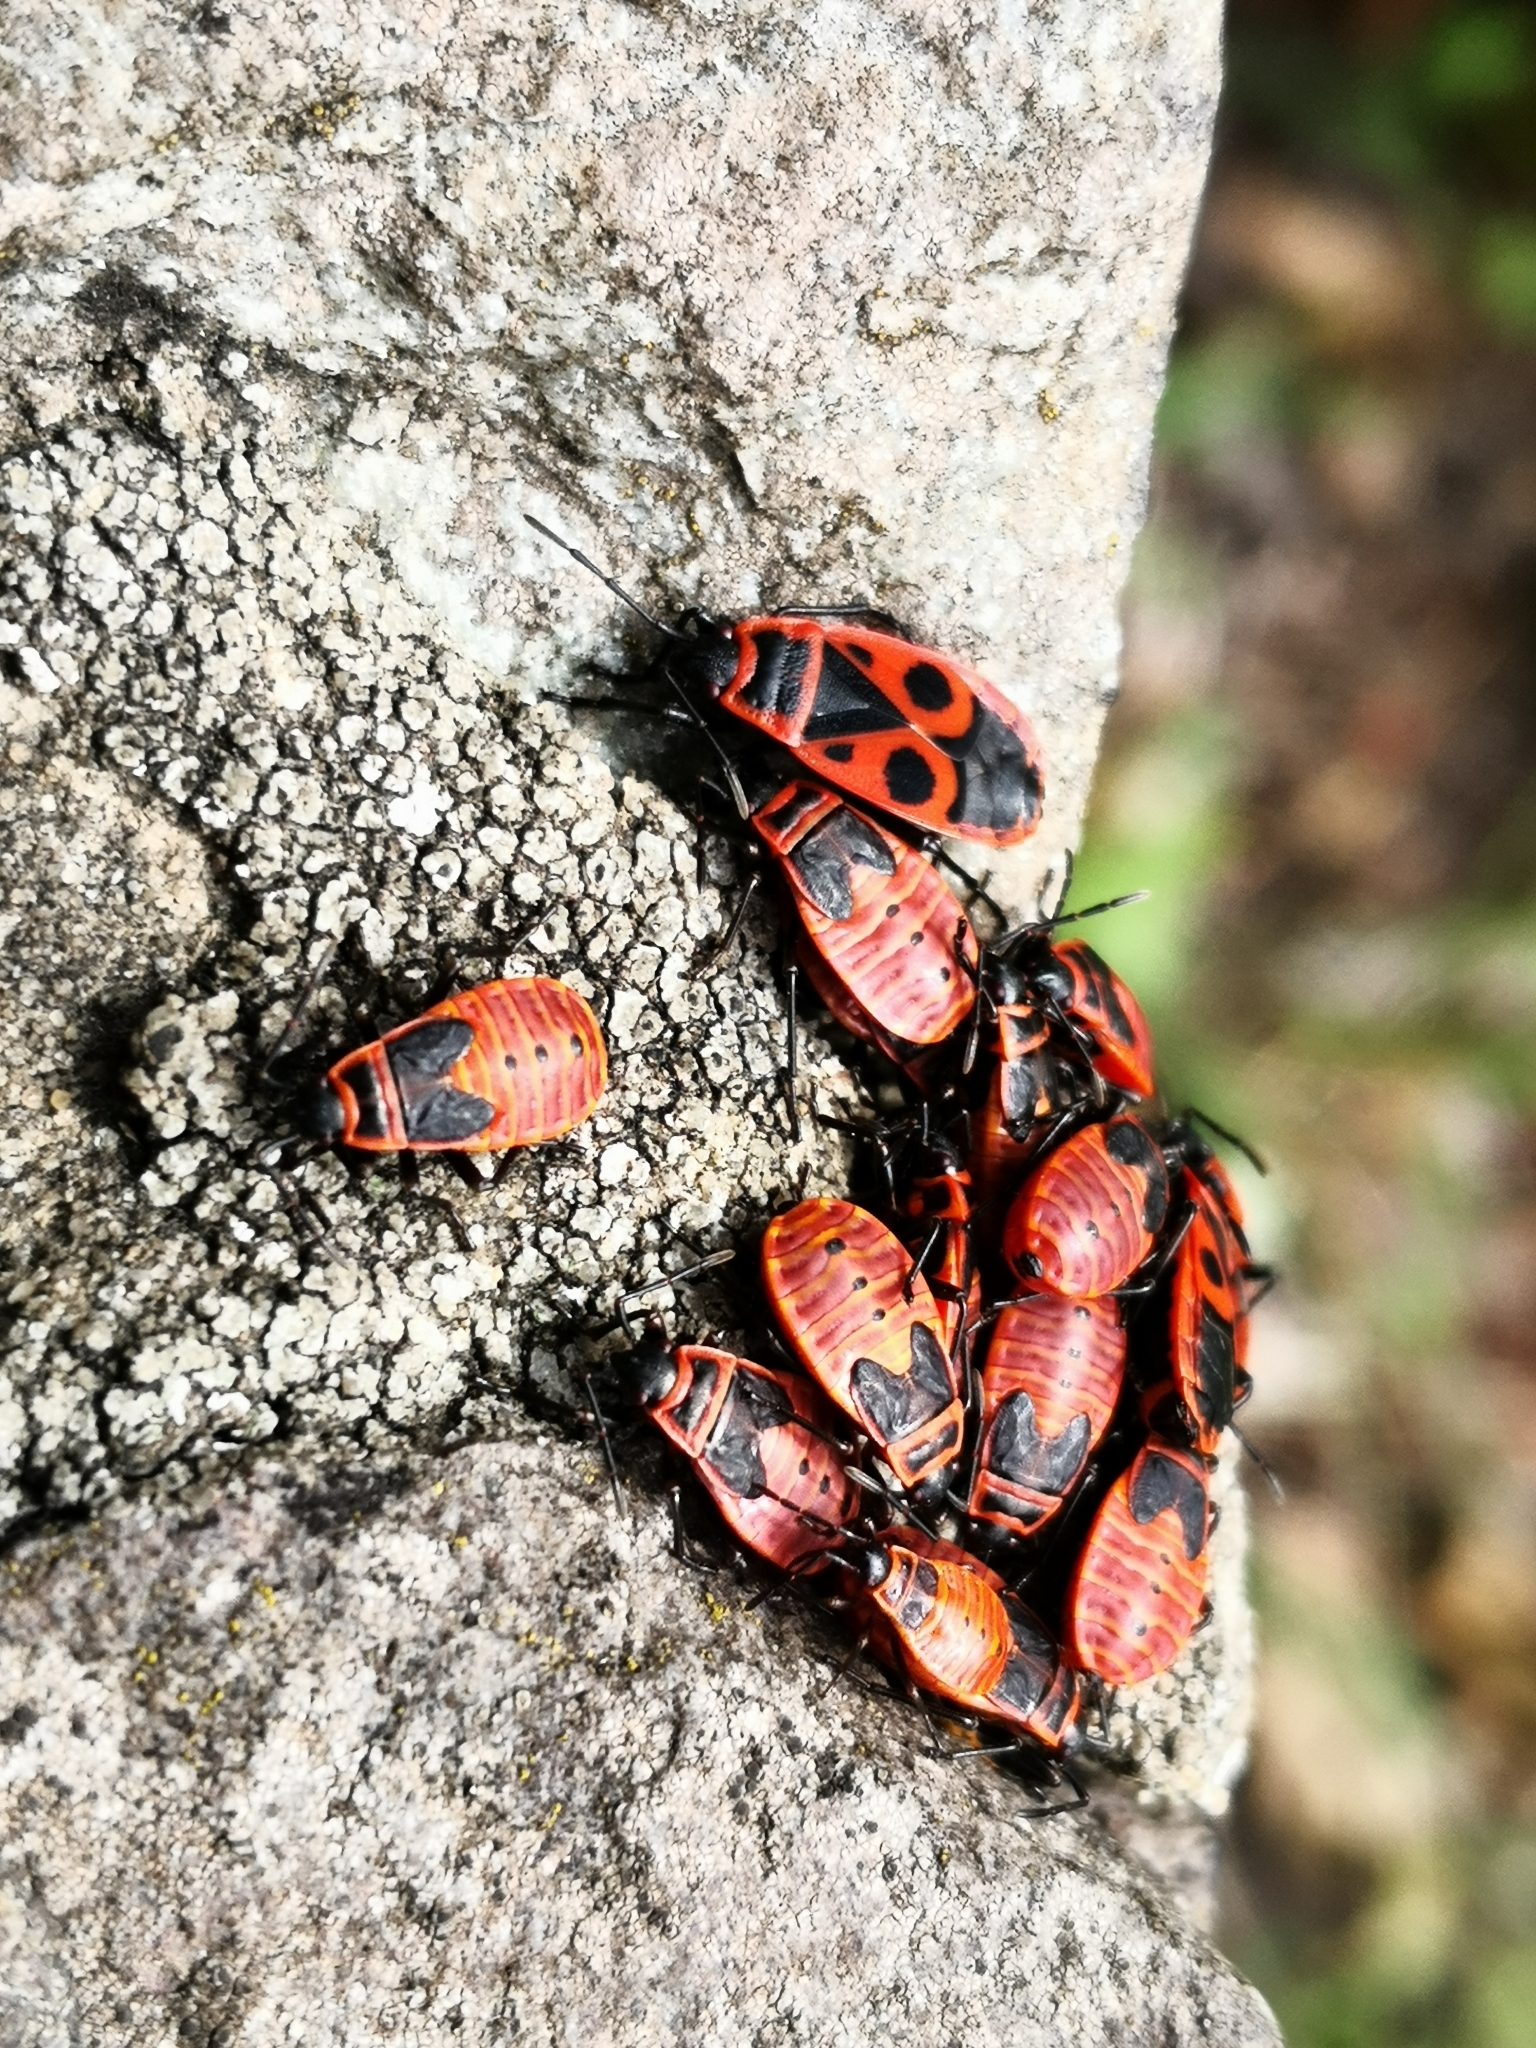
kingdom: Animalia
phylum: Arthropoda
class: Insecta
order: Hemiptera
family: Pyrrhocoridae
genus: Pyrrhocoris
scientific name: Pyrrhocoris apterus
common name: Firebug
